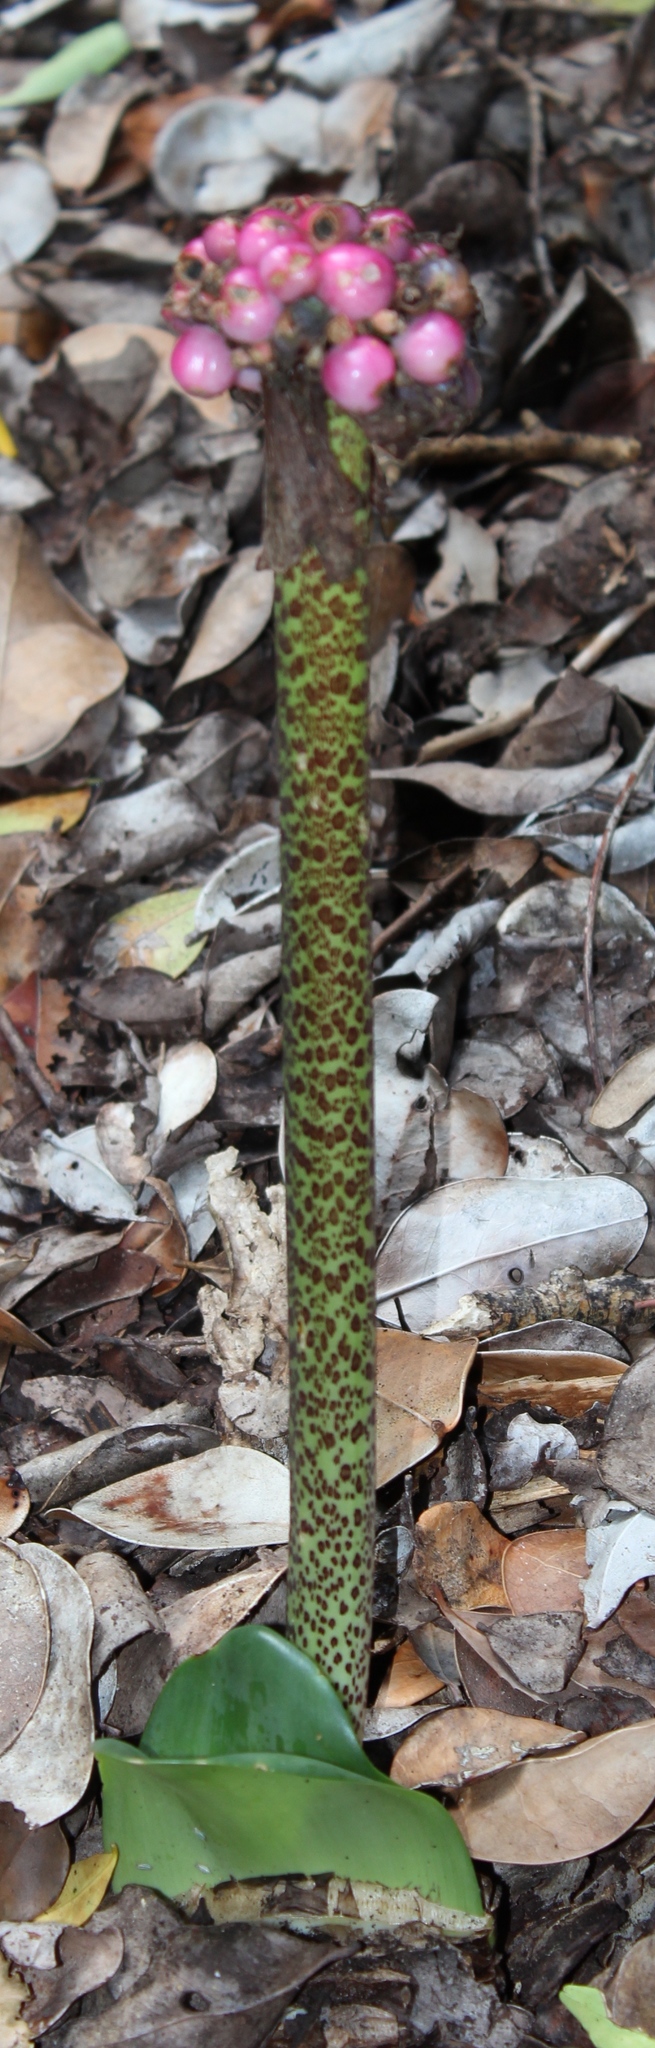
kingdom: Plantae
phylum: Tracheophyta
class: Liliopsida
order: Asparagales
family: Amaryllidaceae
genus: Haemanthus
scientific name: Haemanthus coccineus
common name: Cape-tulip
